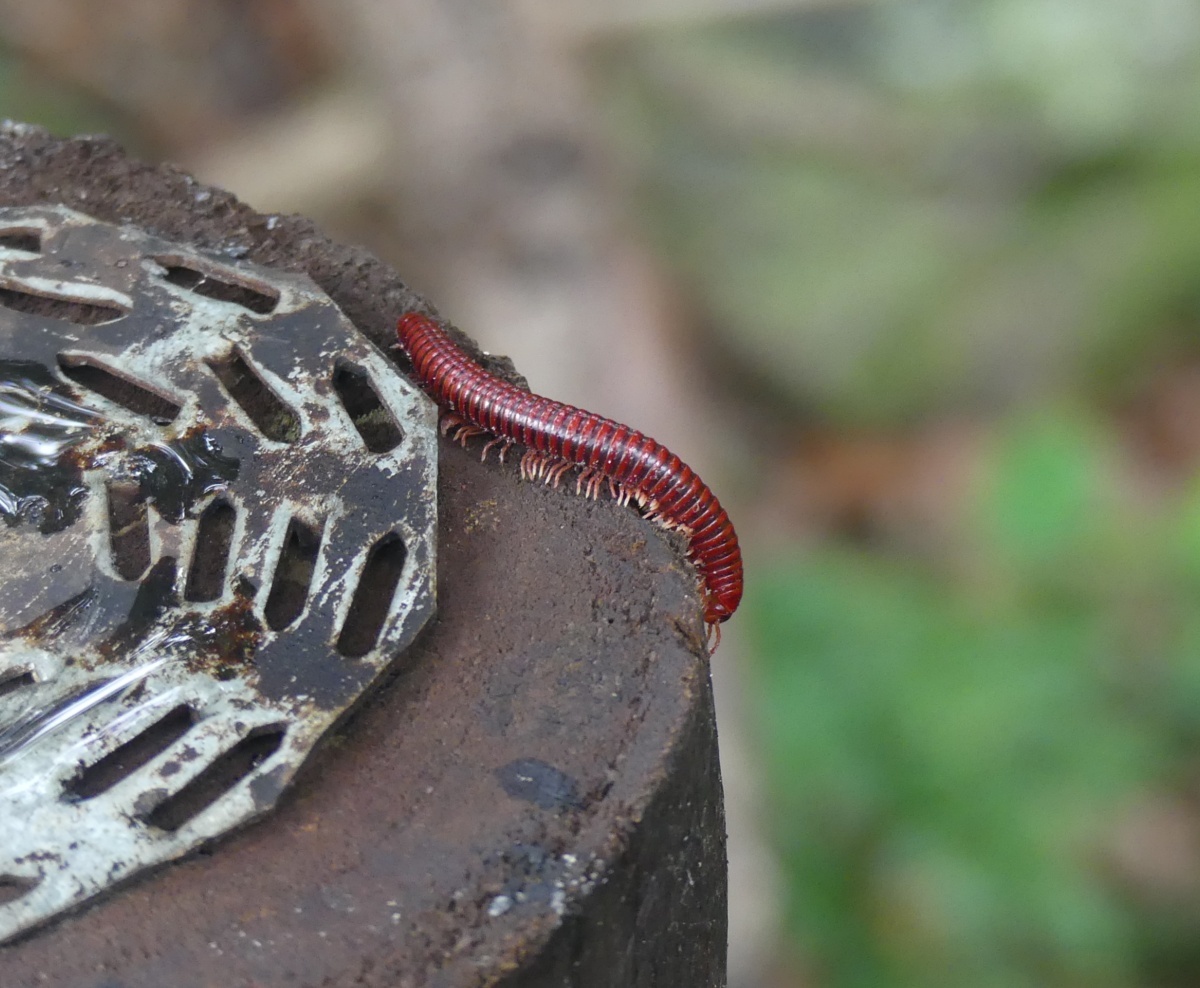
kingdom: Animalia
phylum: Arthropoda
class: Diplopoda
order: Spirobolida
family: Pachybolidae
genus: Centrobolus
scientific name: Centrobolus transvaalicus
